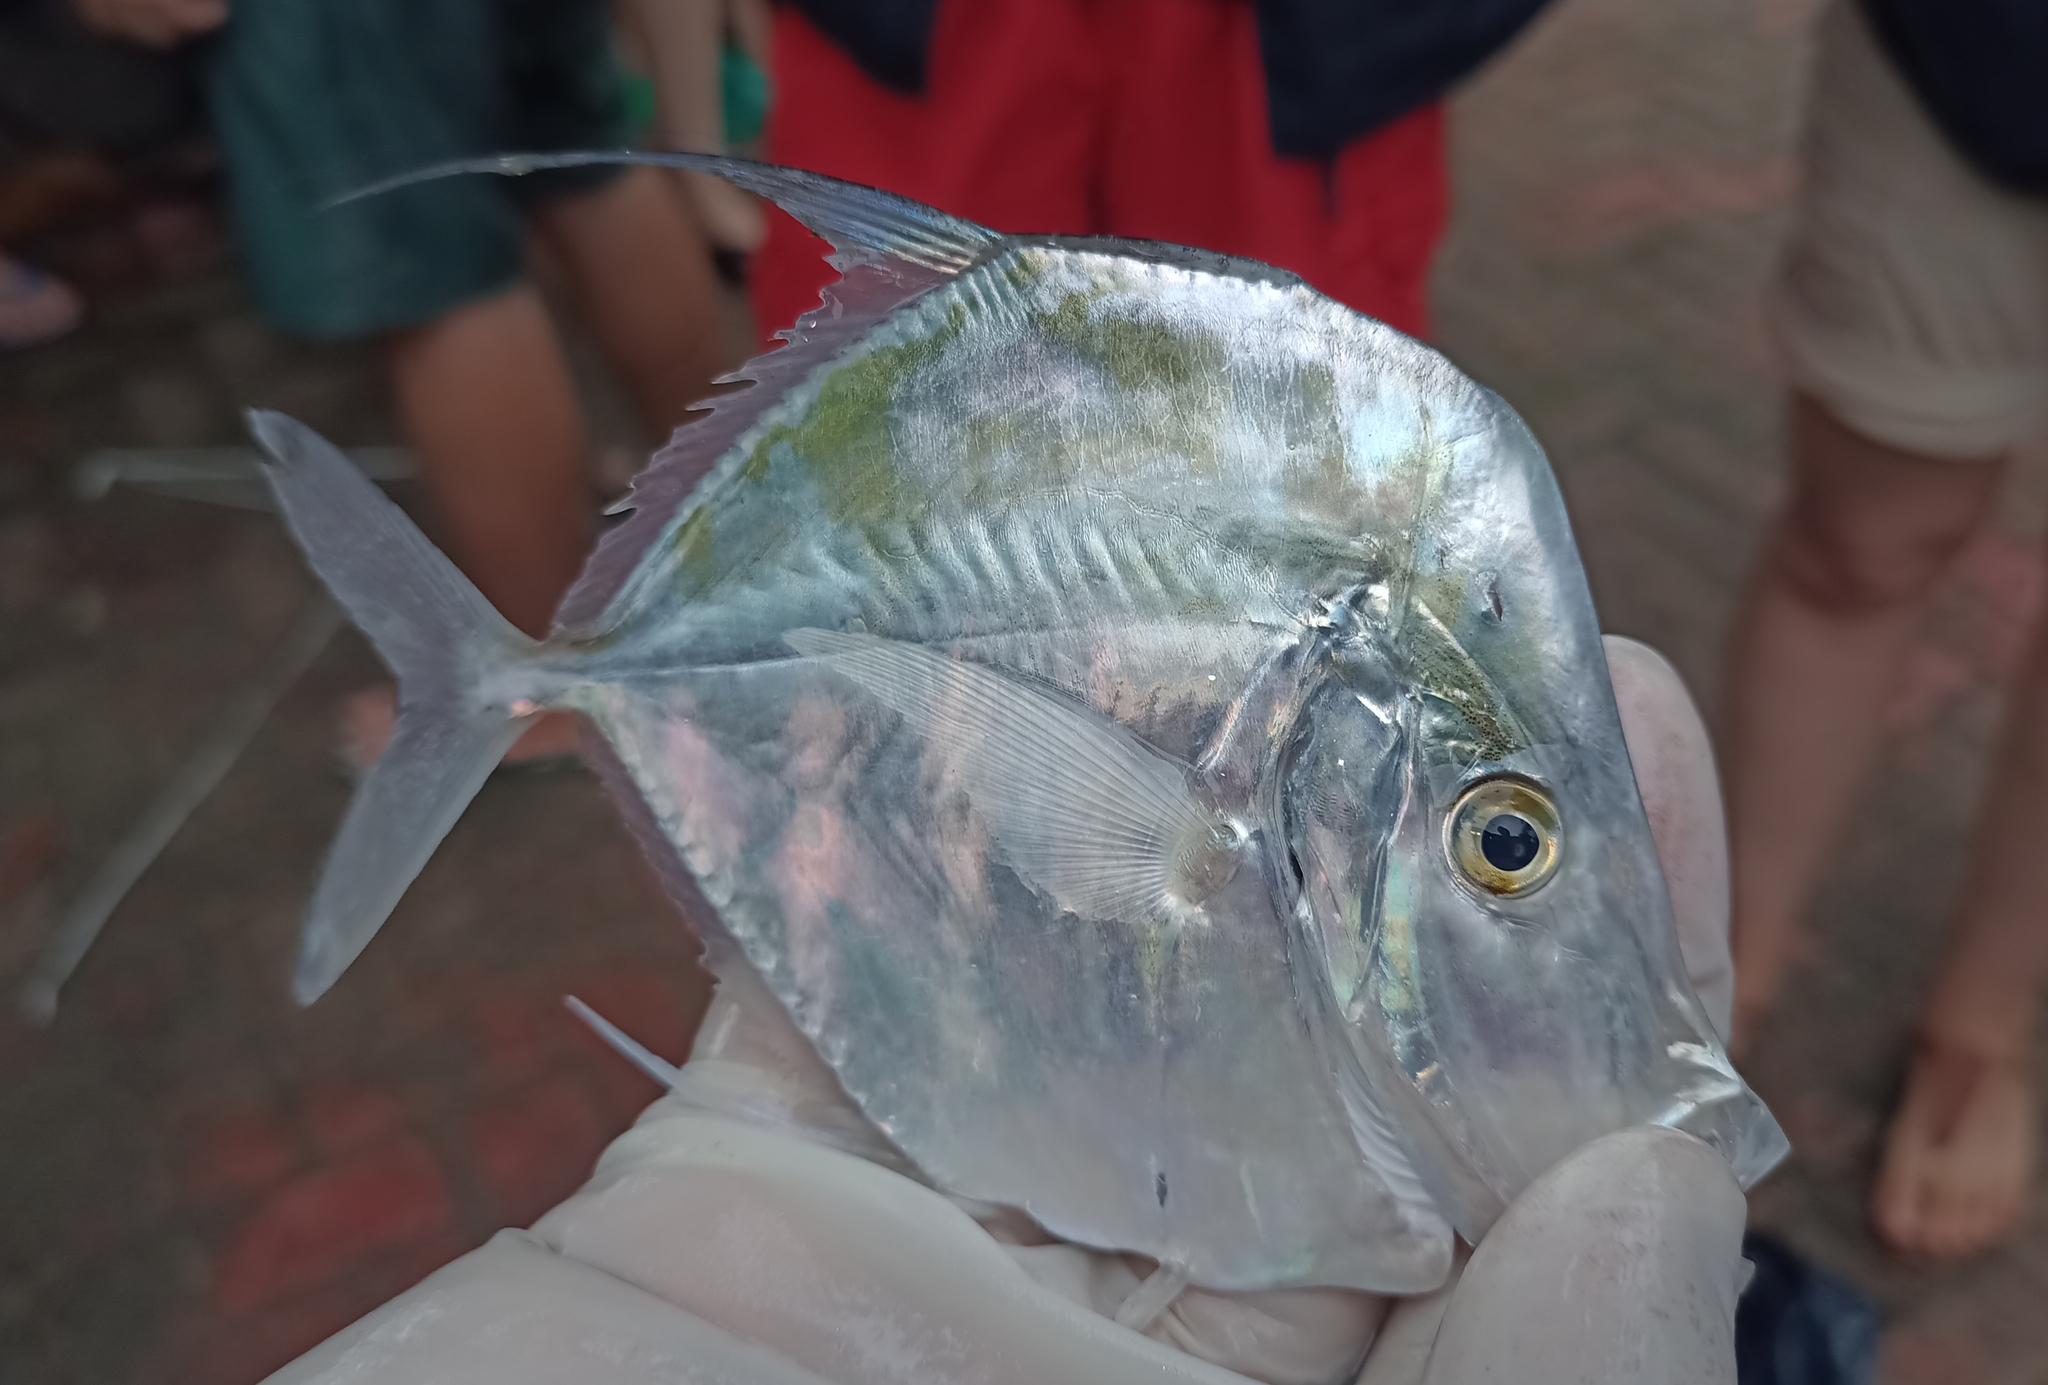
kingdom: Animalia
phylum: Chordata
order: Perciformes
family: Carangidae
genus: Selene
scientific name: Selene vomer
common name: Lookdown
